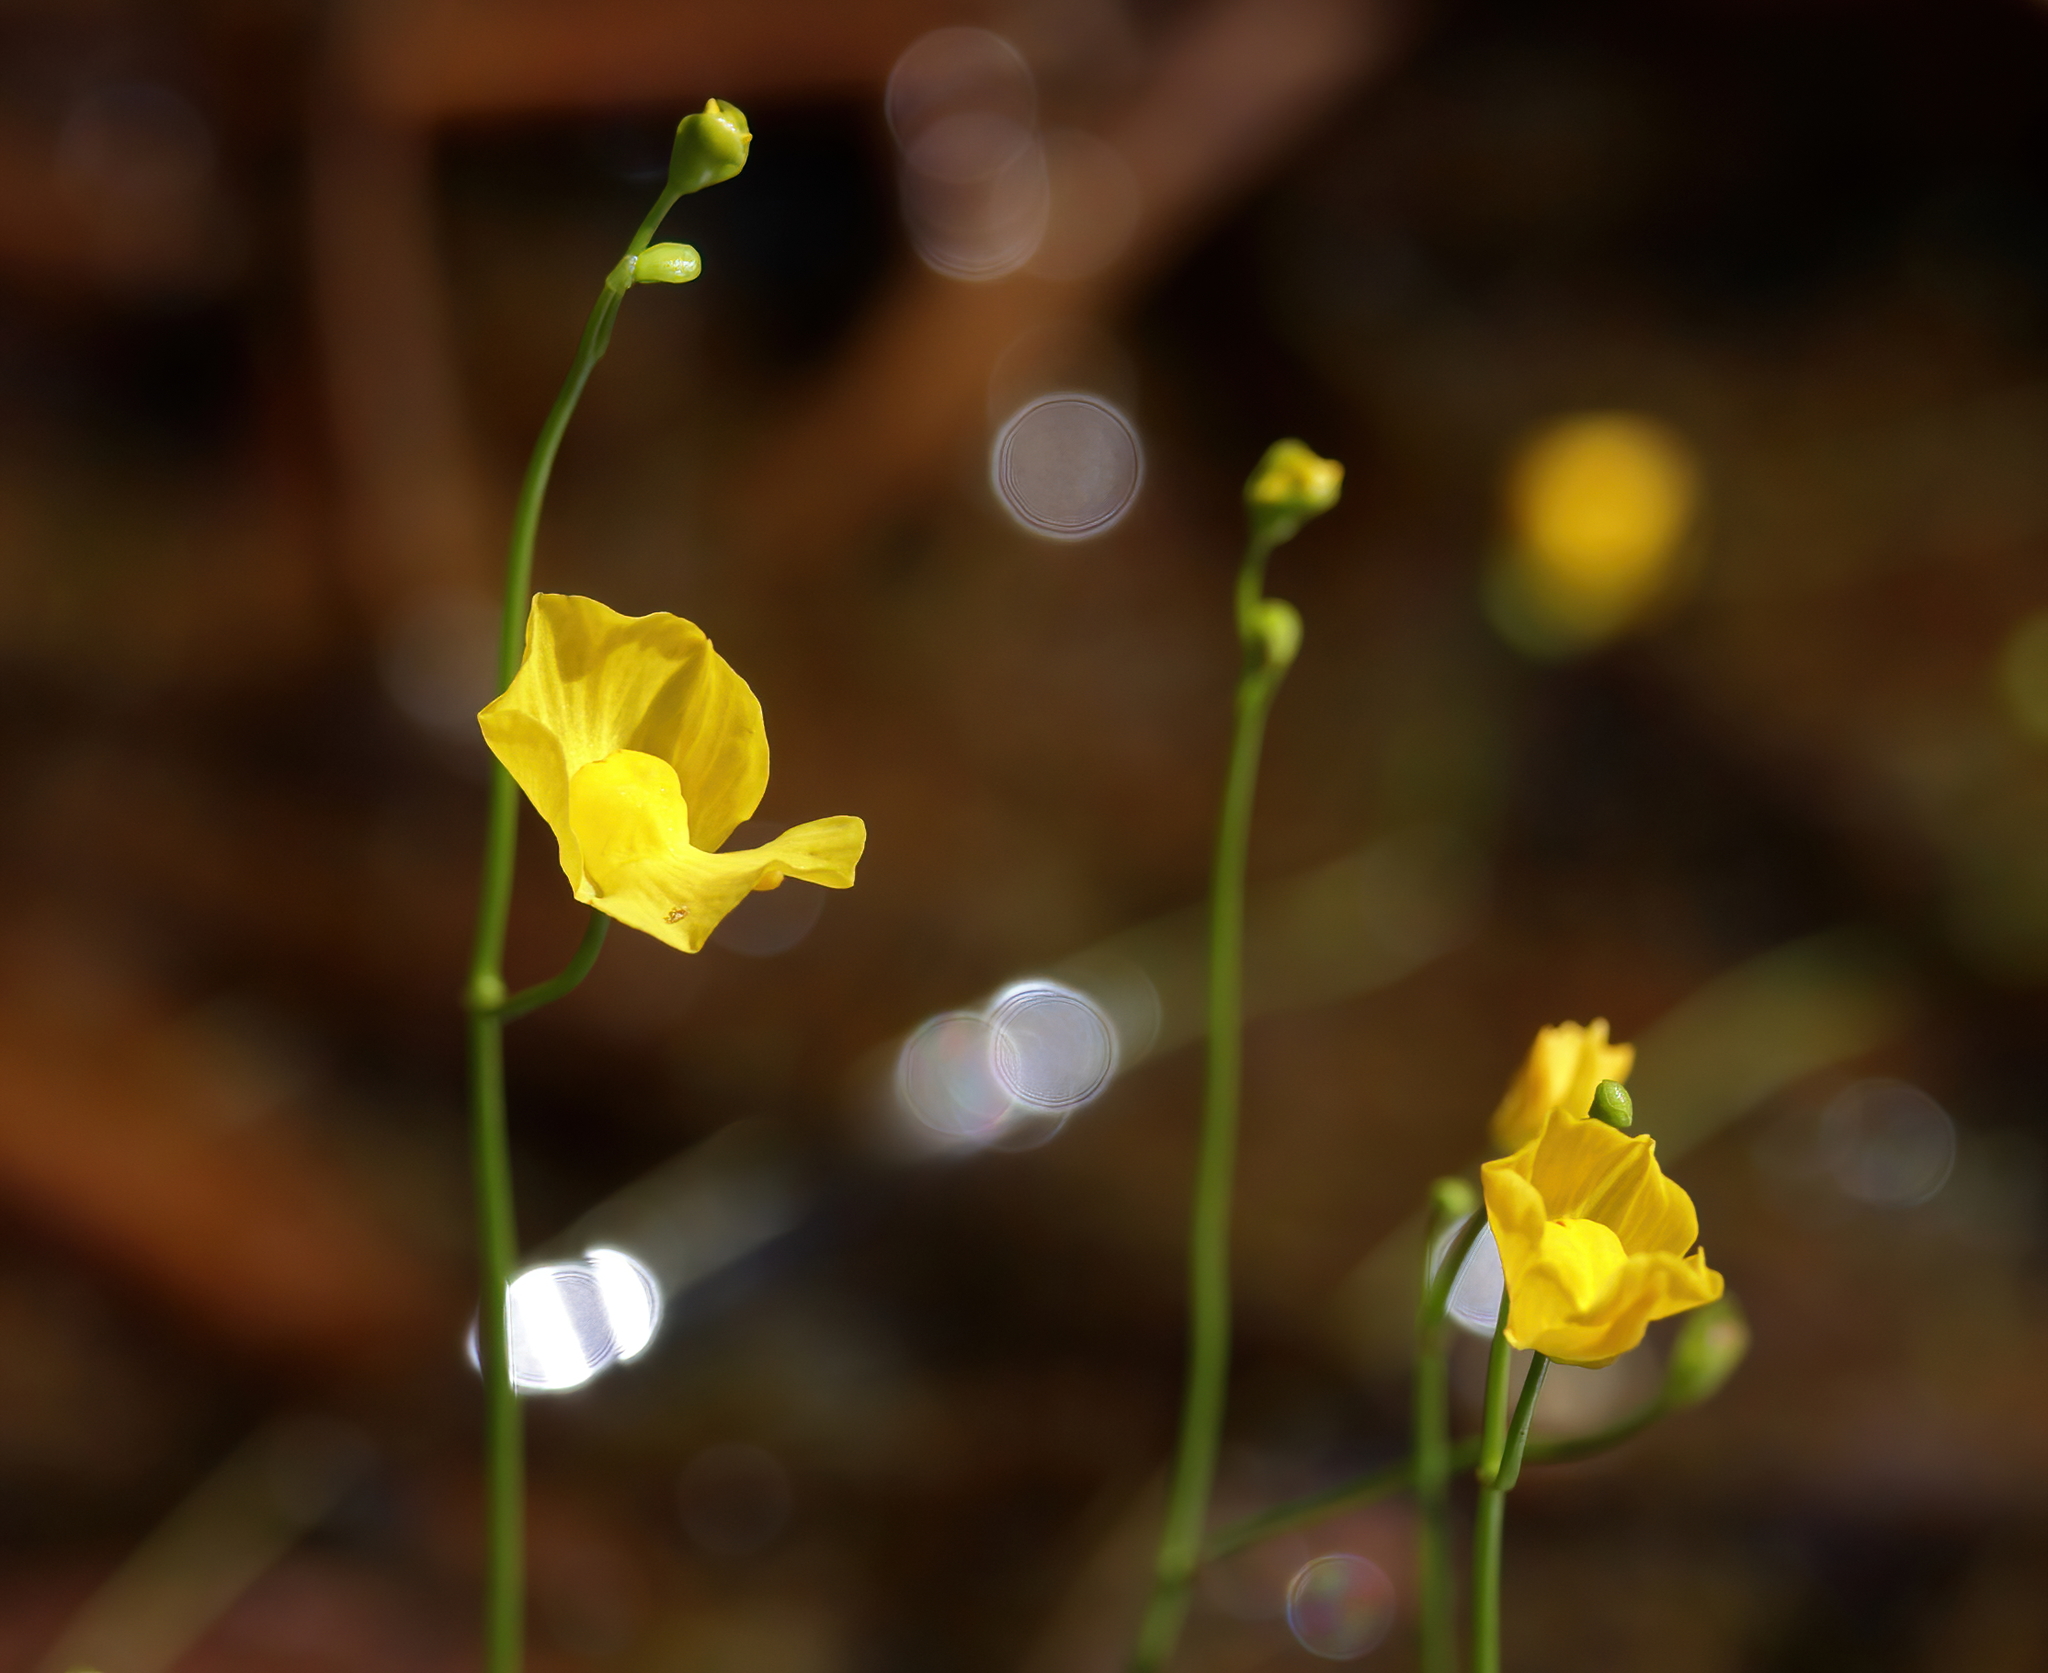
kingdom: Plantae
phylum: Tracheophyta
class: Magnoliopsida
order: Lamiales
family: Lentibulariaceae
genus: Utricularia
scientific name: Utricularia gibba
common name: Humped bladderwort
